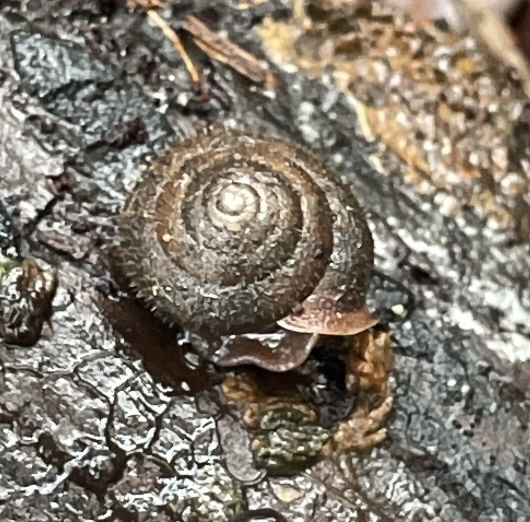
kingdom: Animalia
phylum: Mollusca
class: Gastropoda
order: Stylommatophora
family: Polygyridae
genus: Cryptomastix
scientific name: Cryptomastix germana
